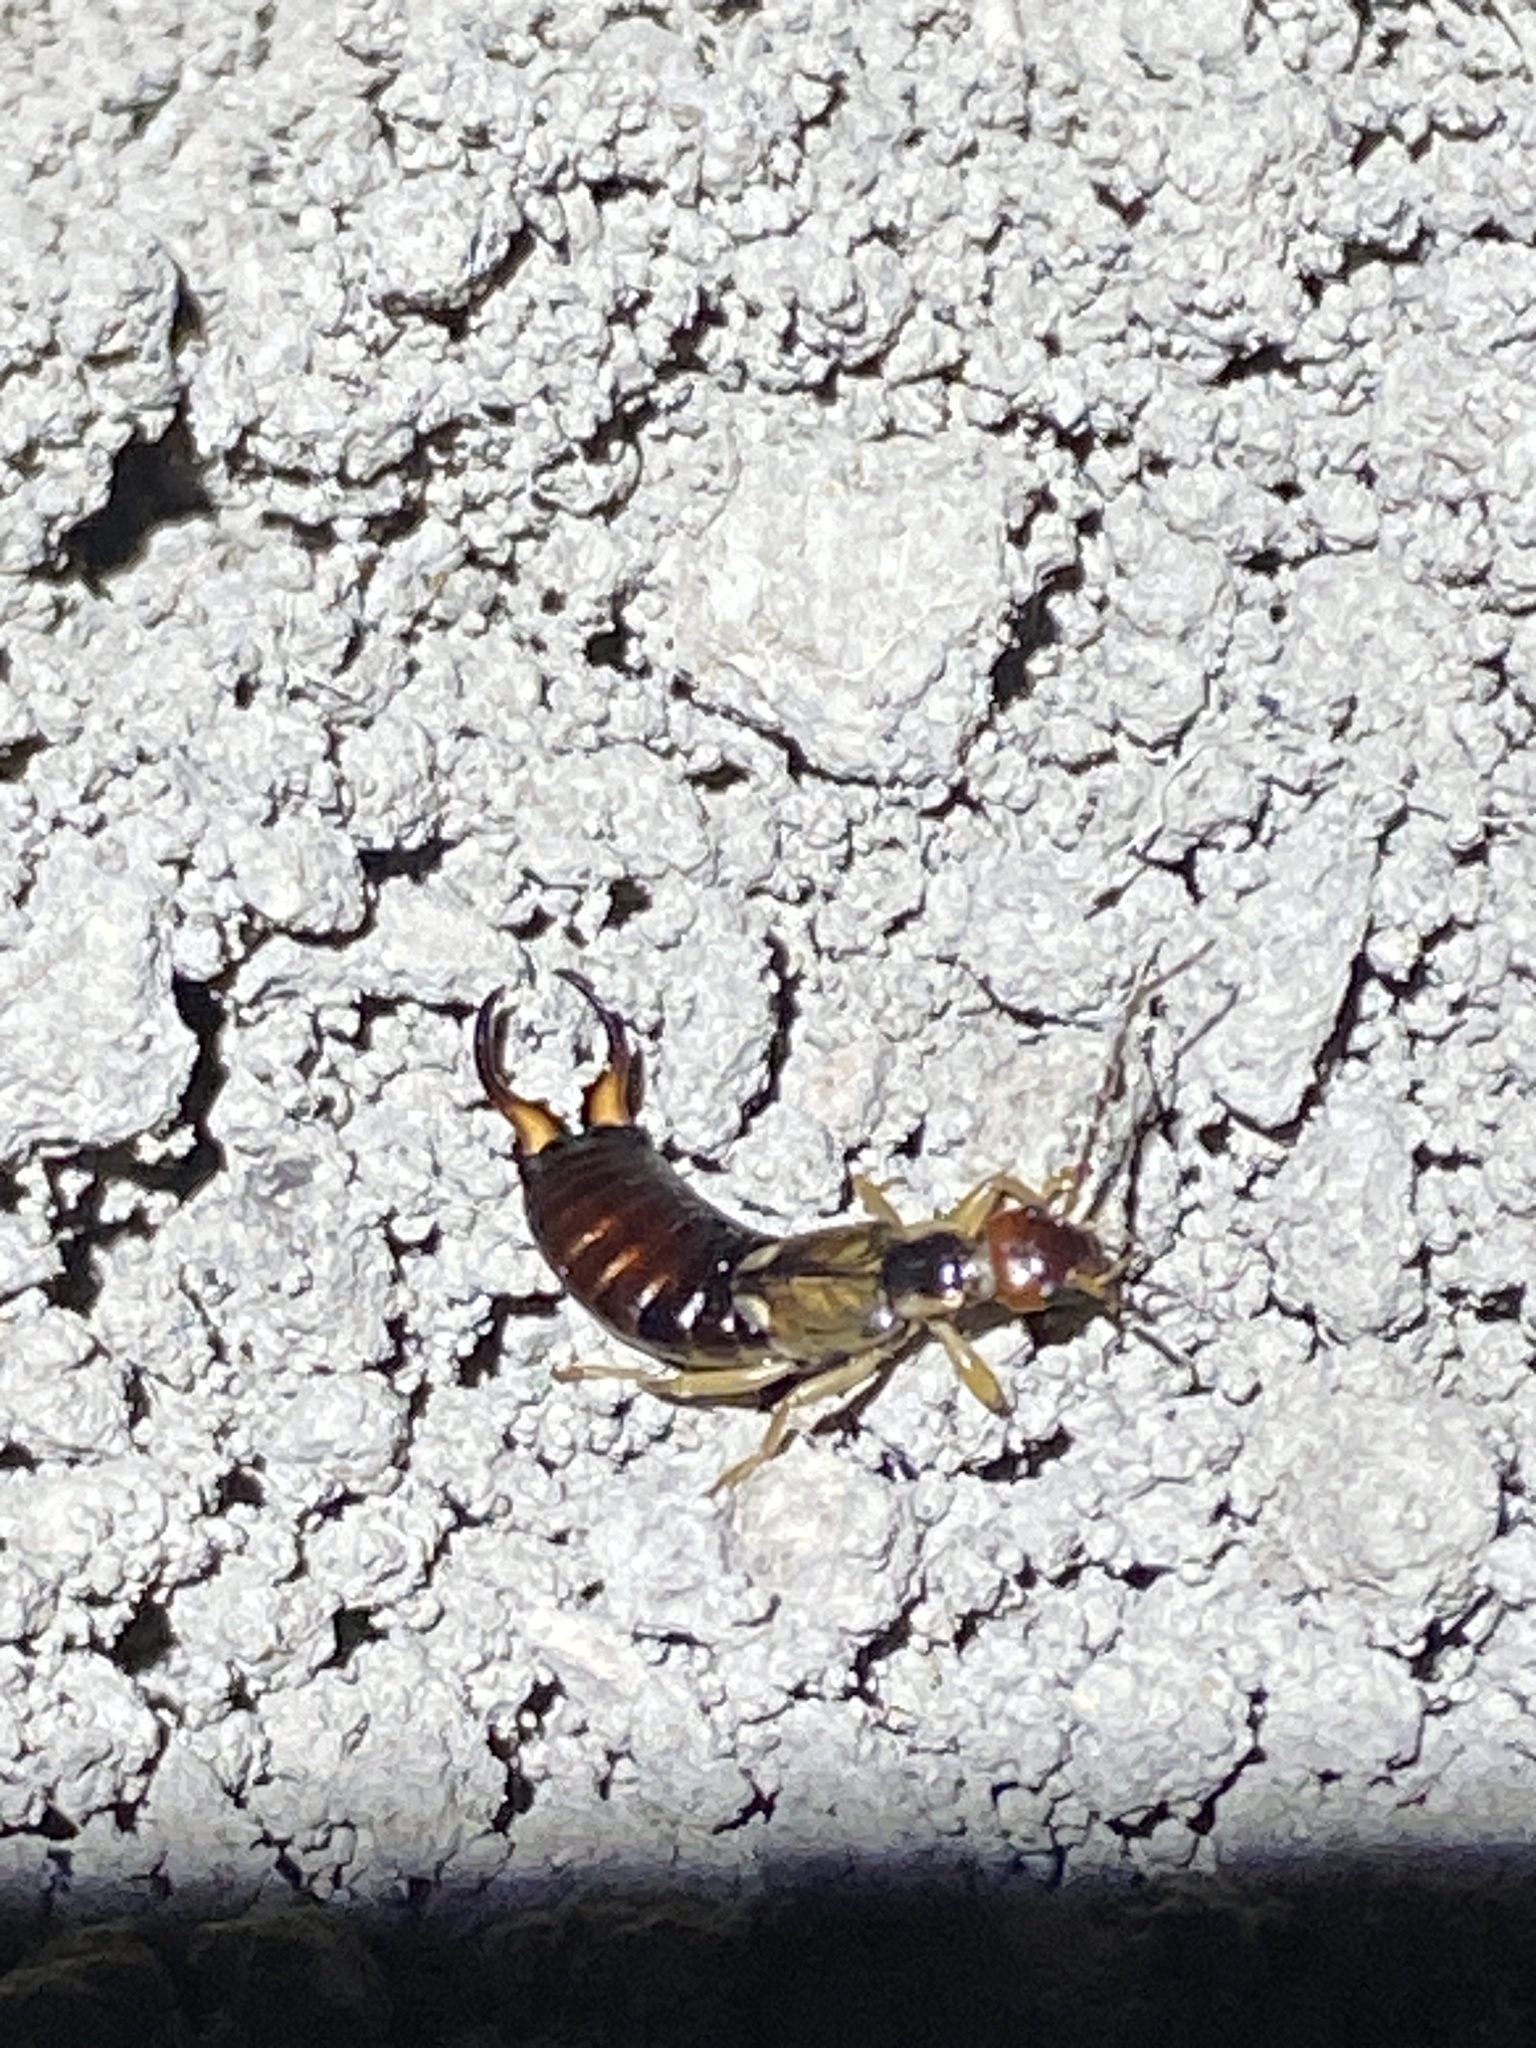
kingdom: Animalia
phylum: Arthropoda
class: Insecta
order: Dermaptera
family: Forficulidae
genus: Forficula
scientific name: Forficula dentata
